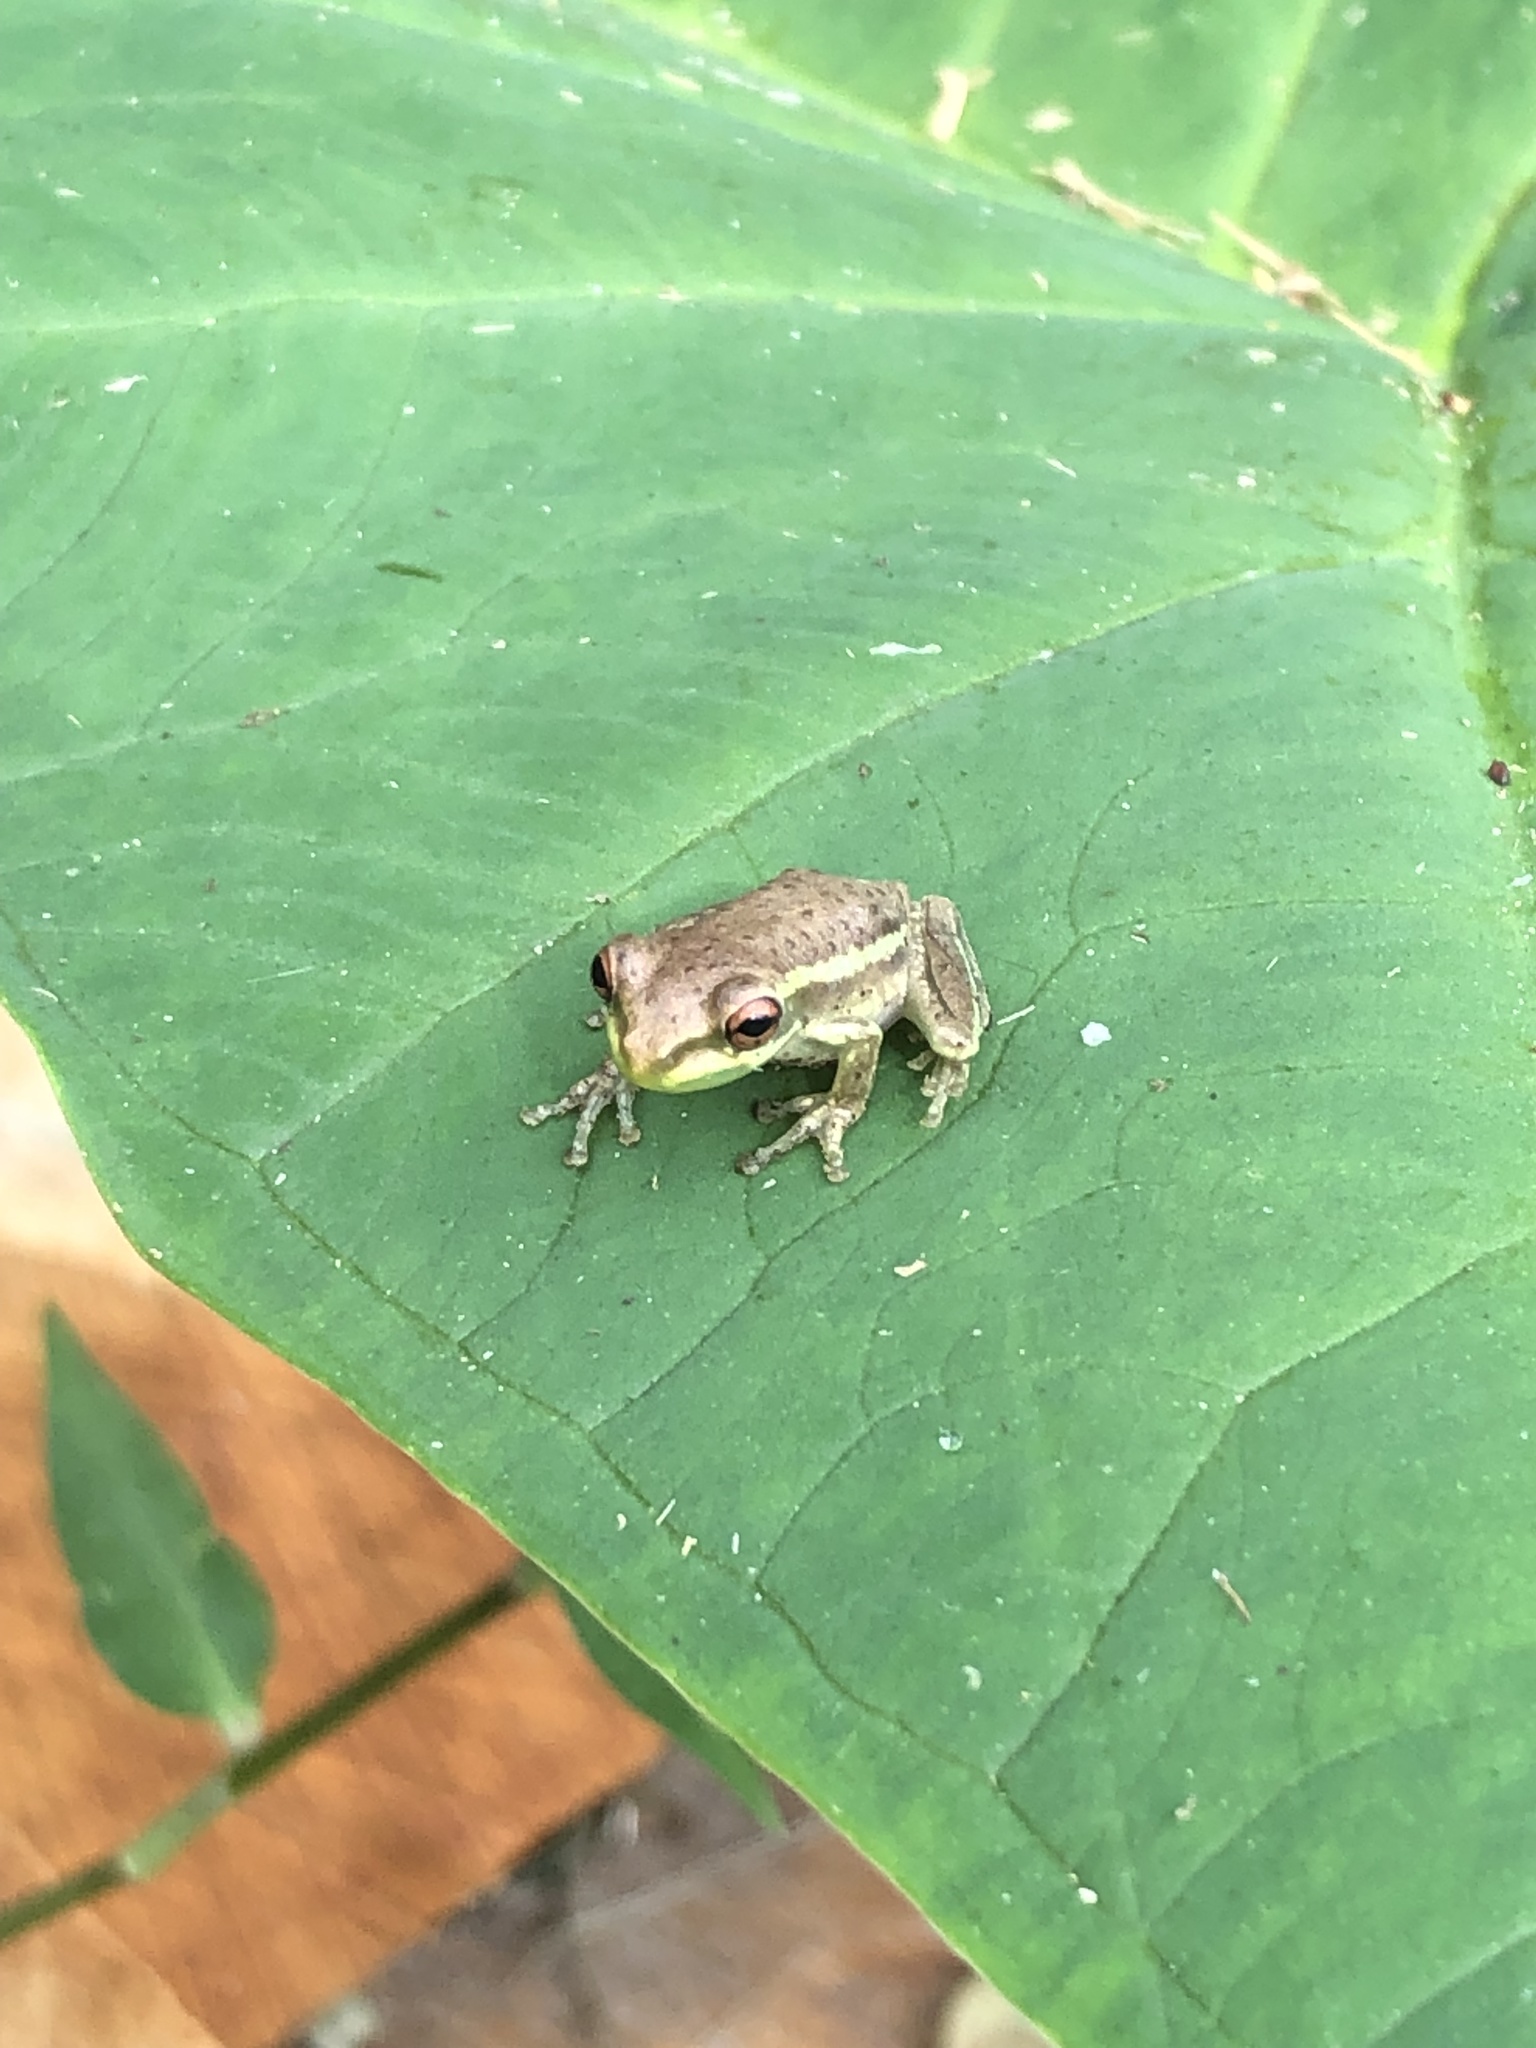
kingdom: Animalia
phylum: Chordata
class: Amphibia
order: Anura
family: Hylidae
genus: Osteopilus
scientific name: Osteopilus septentrionalis
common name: Cuban treefrog
